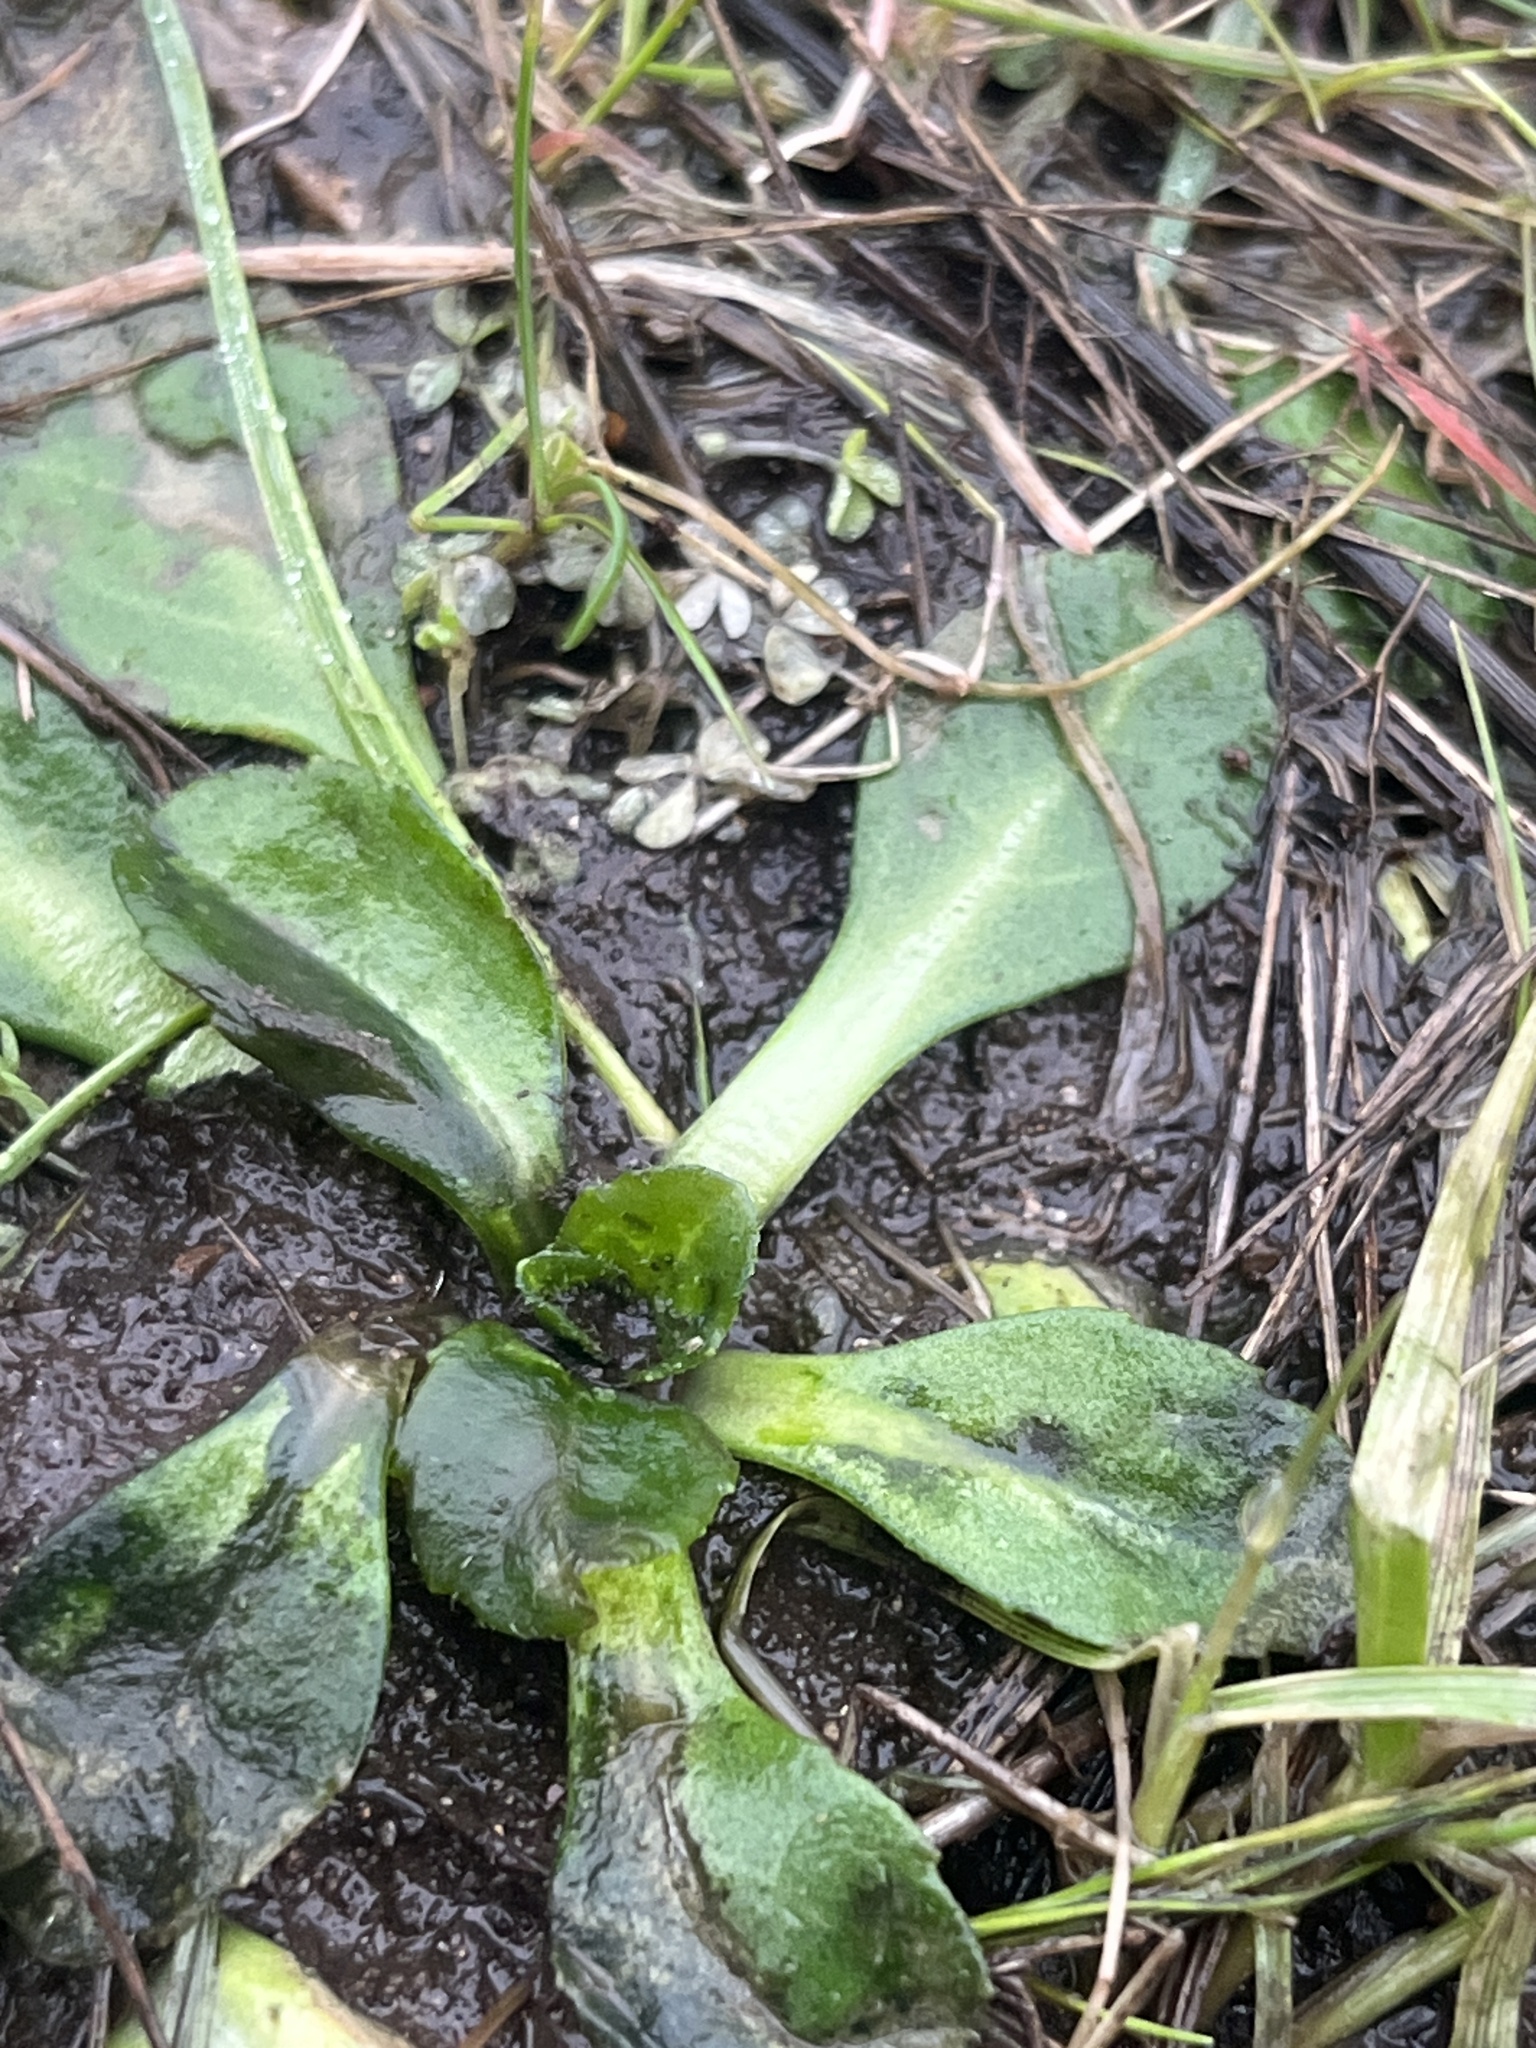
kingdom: Plantae
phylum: Tracheophyta
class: Magnoliopsida
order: Asterales
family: Asteraceae
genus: Bellis
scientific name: Bellis perennis
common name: Lawndaisy
